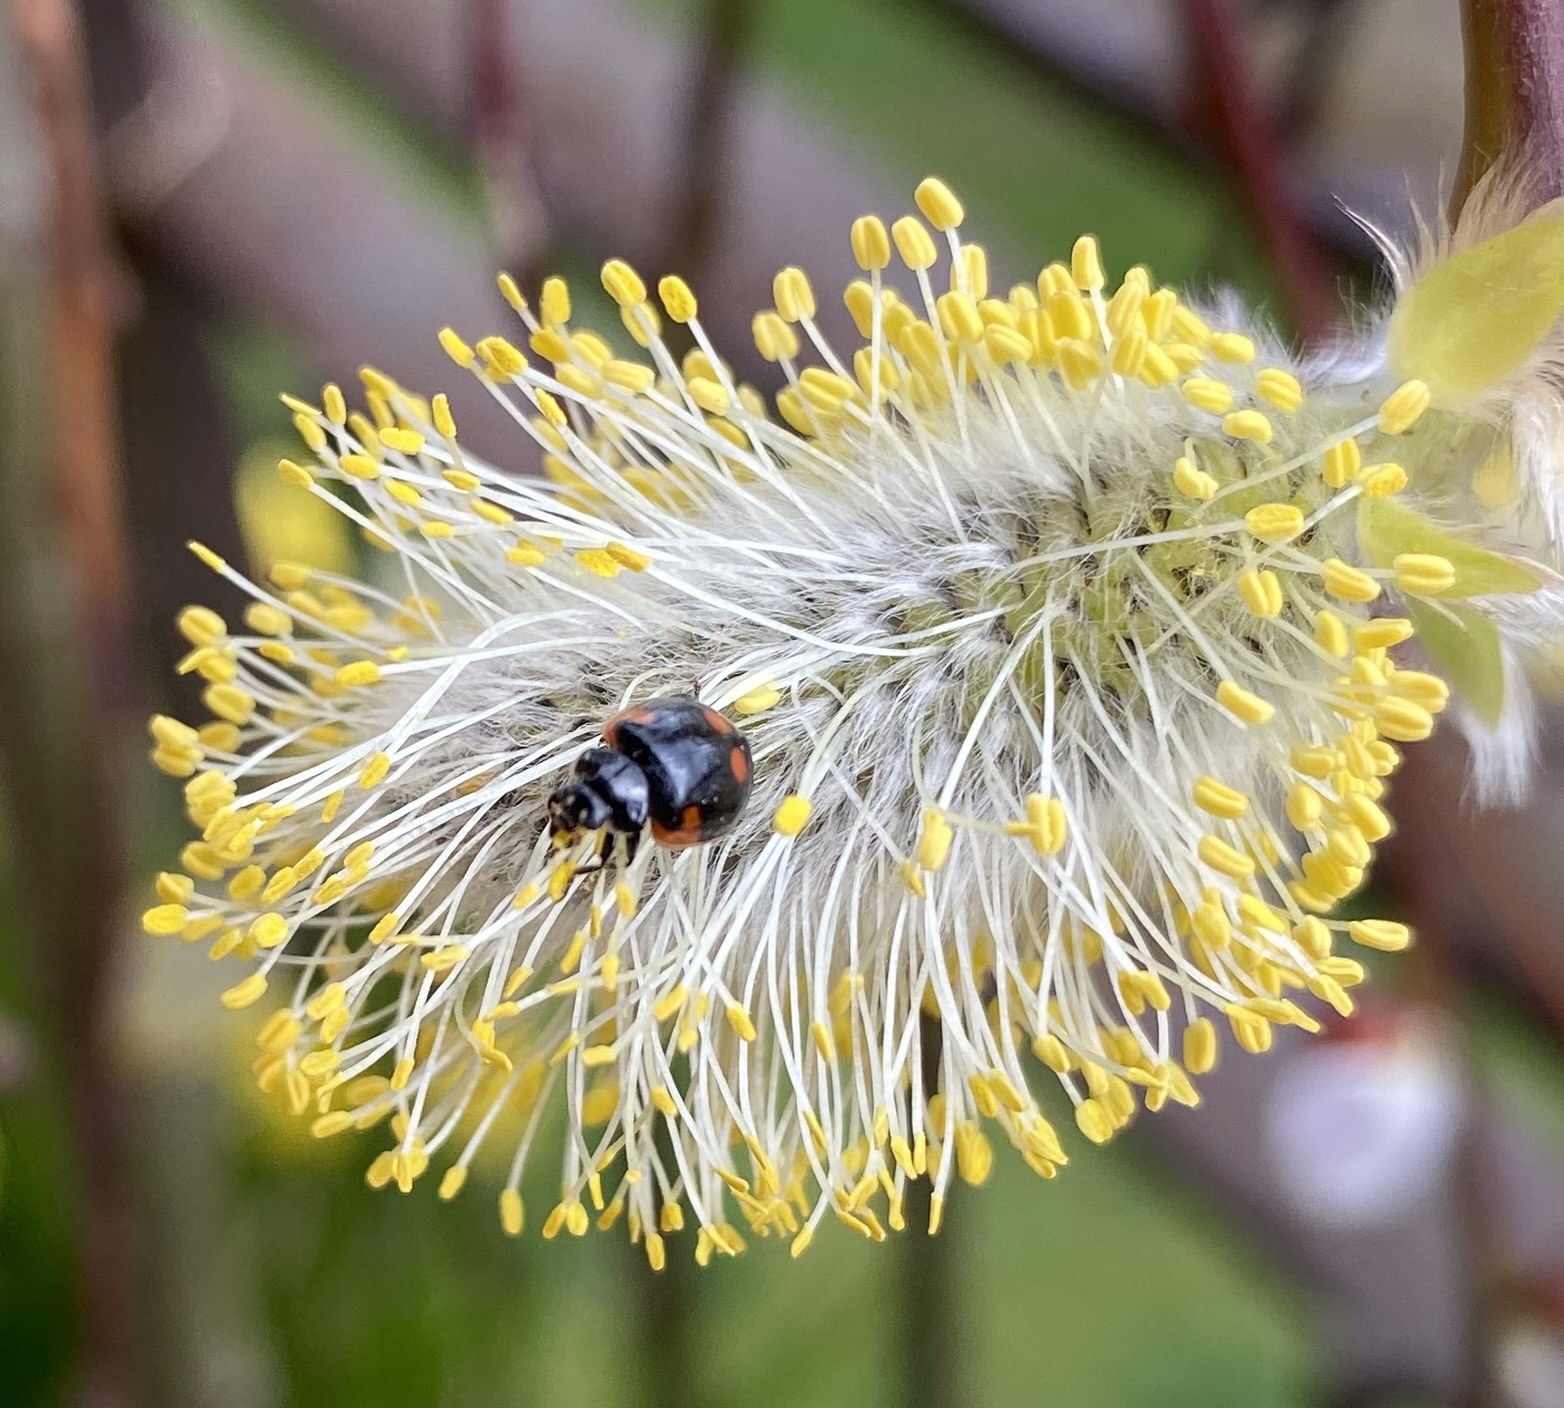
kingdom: Animalia
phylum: Arthropoda
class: Insecta
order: Coleoptera
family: Coccinellidae
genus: Adalia
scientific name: Adalia bipunctata
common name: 2-spot ladybird
